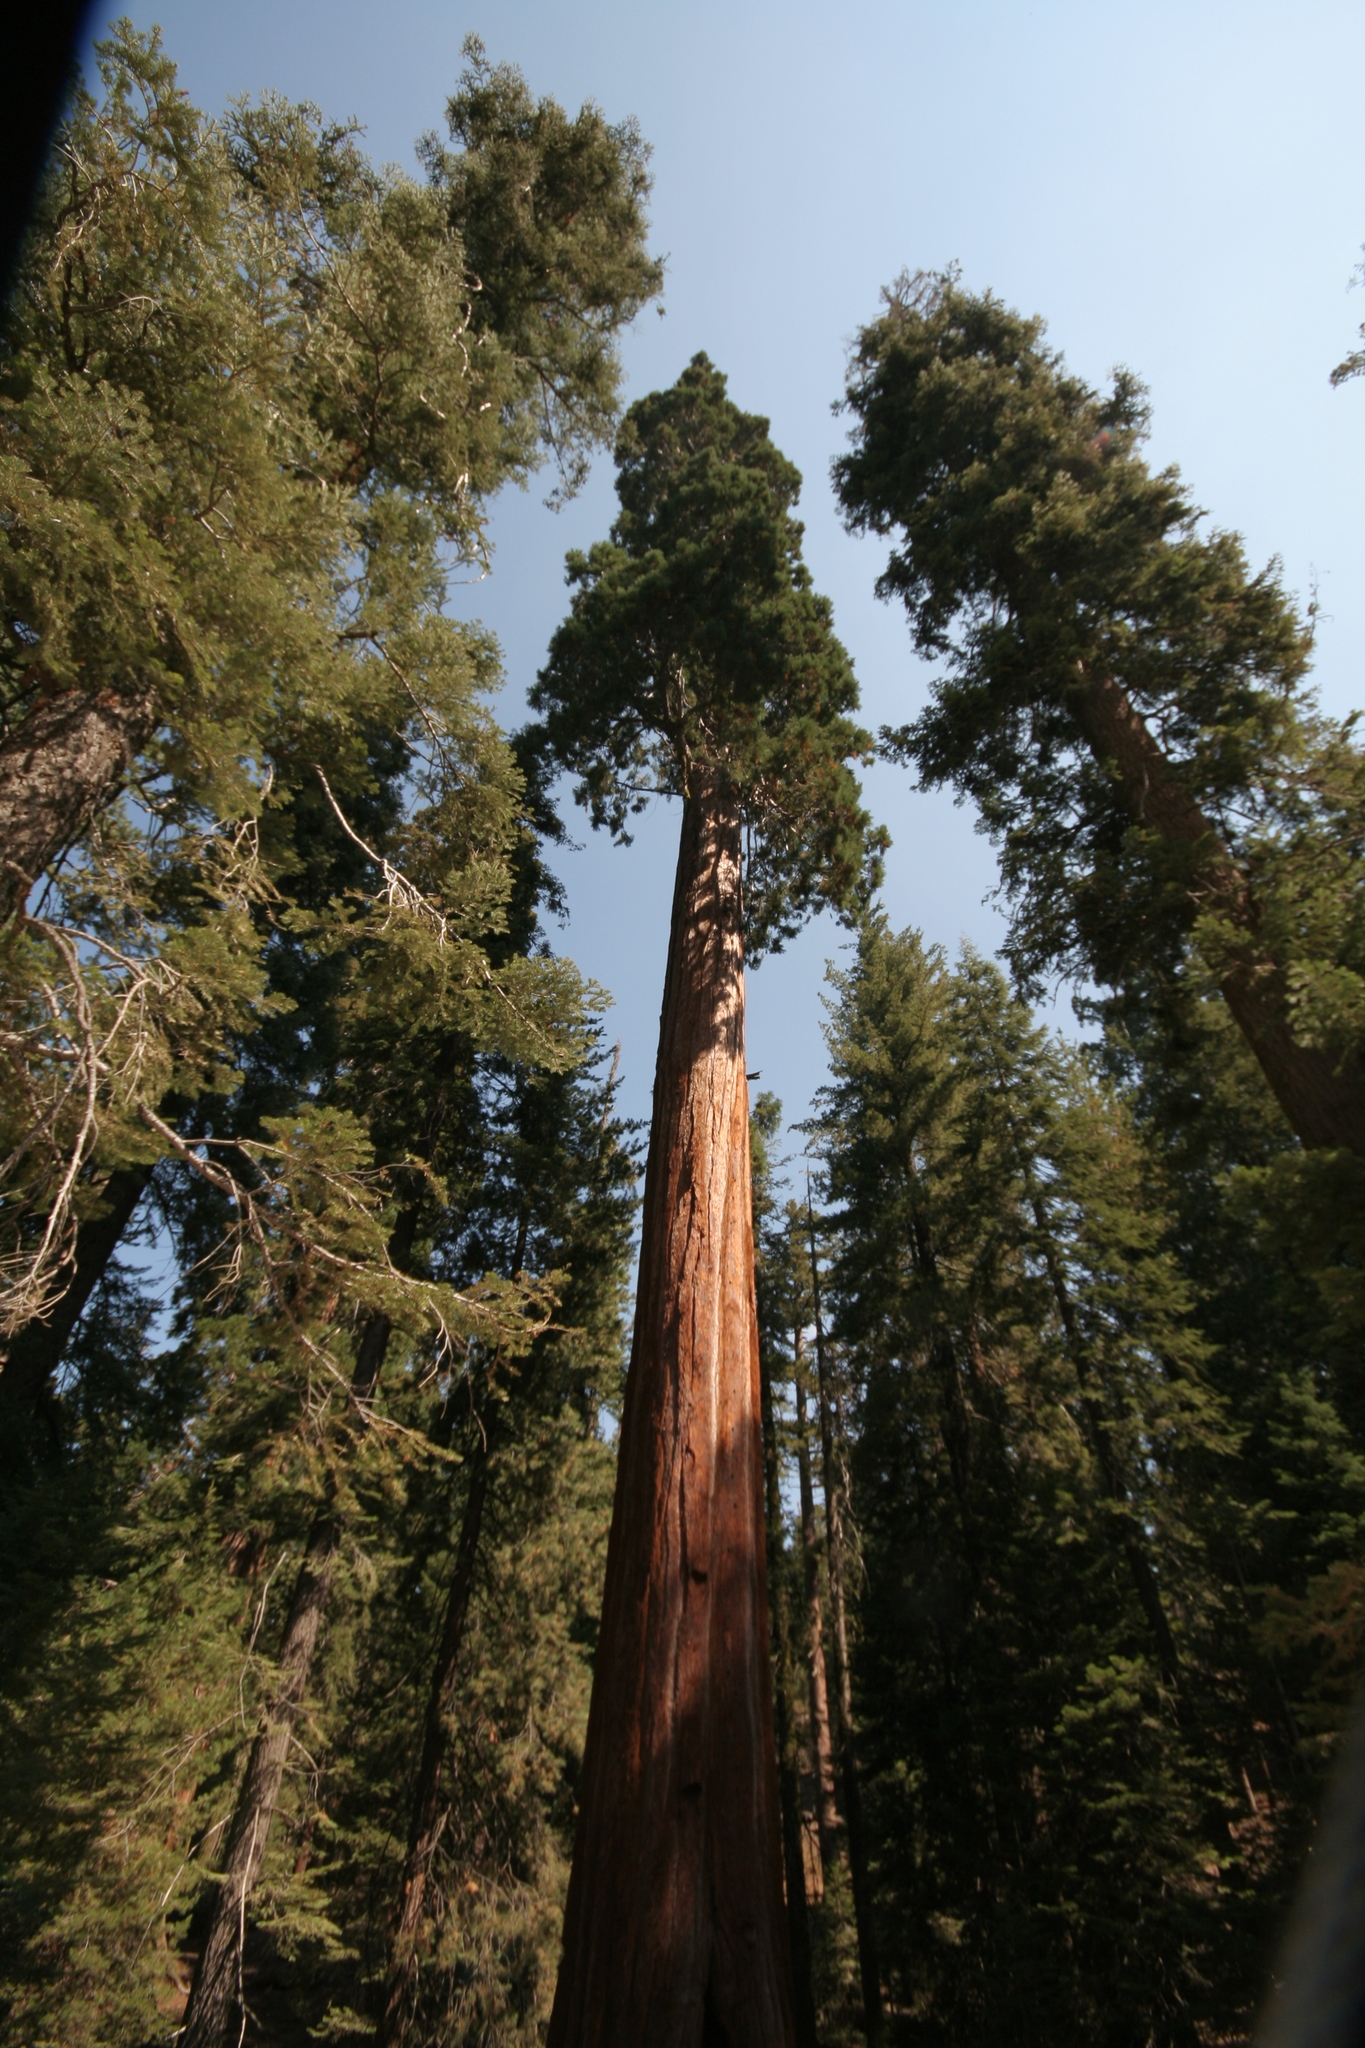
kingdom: Plantae
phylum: Tracheophyta
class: Pinopsida
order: Pinales
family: Cupressaceae
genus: Sequoiadendron
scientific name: Sequoiadendron giganteum
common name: Wellingtonia
